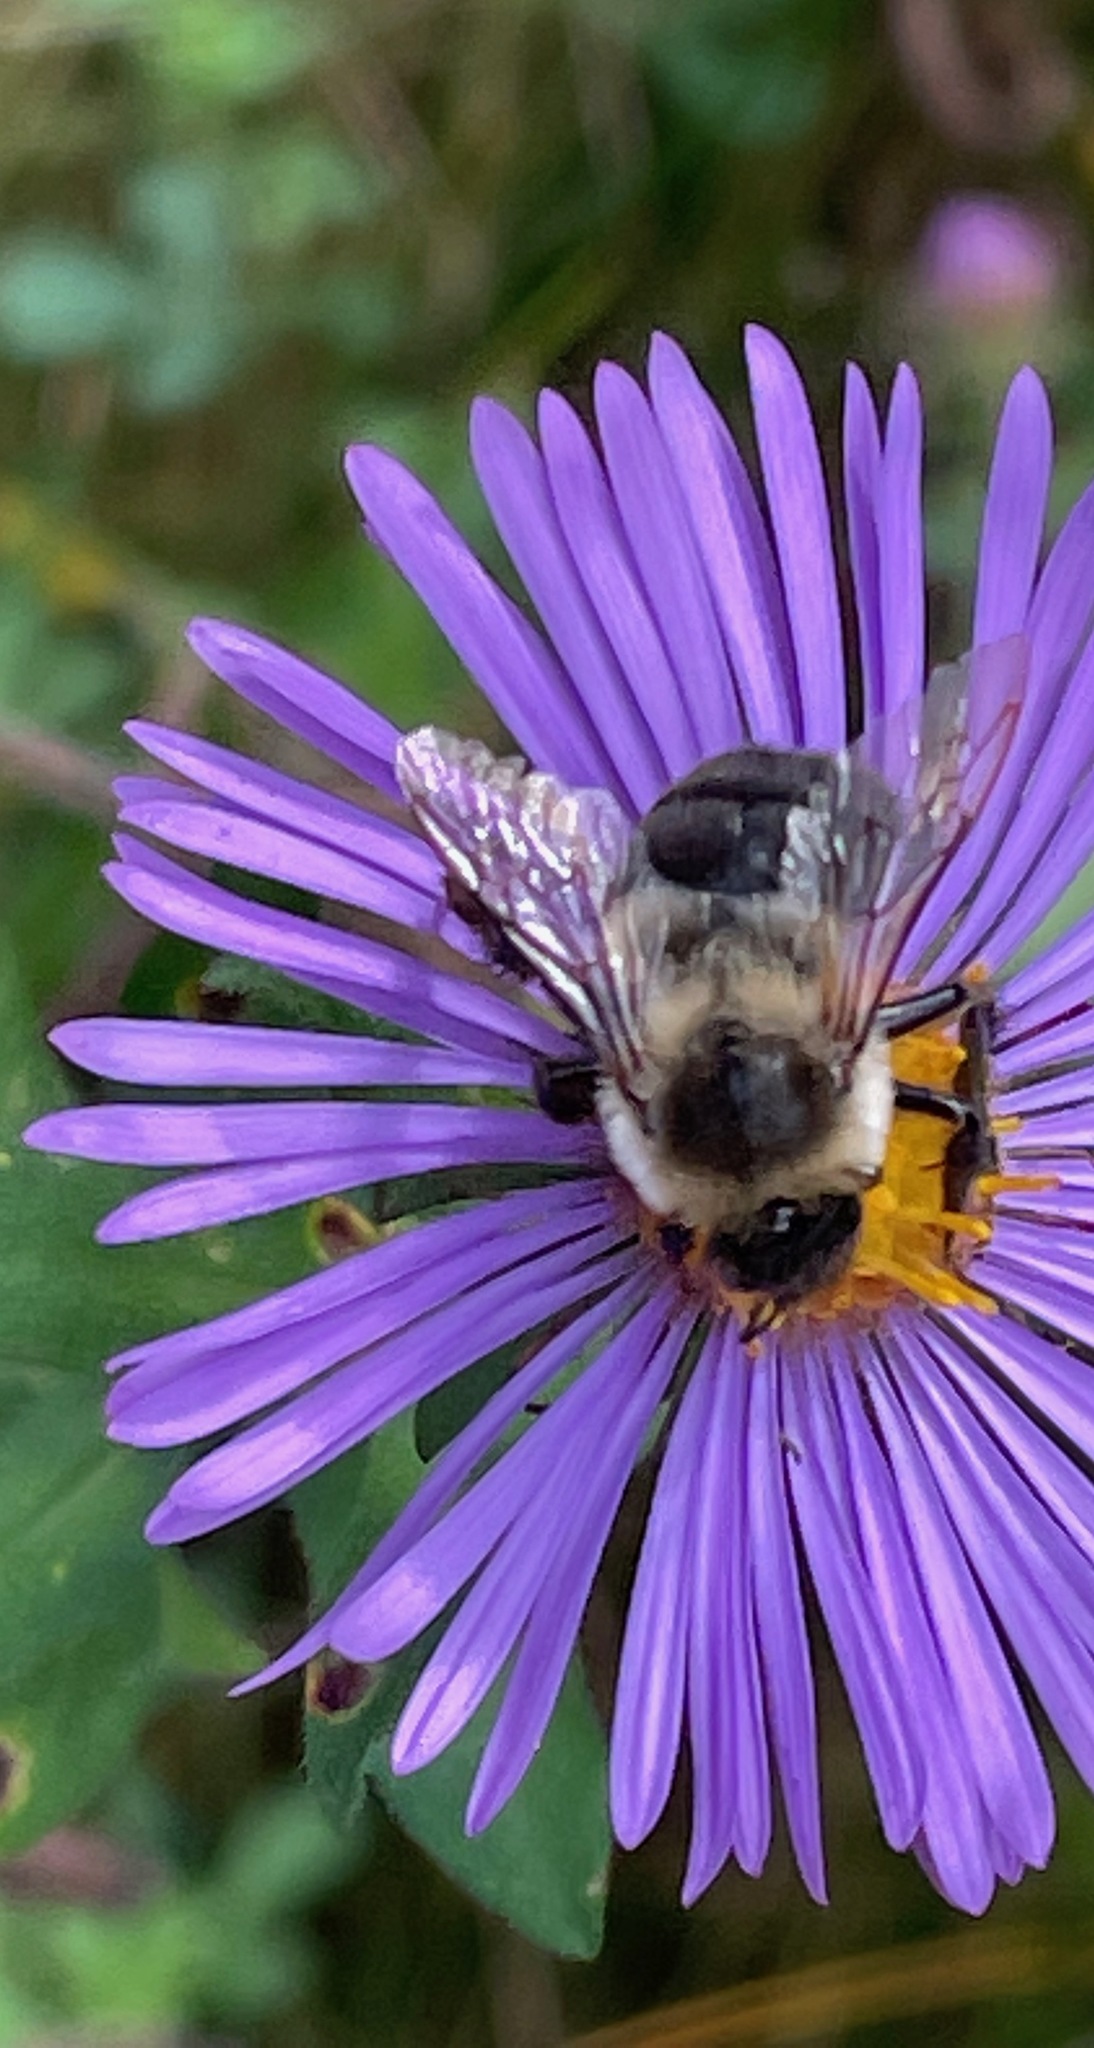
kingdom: Animalia
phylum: Arthropoda
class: Insecta
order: Hymenoptera
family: Apidae
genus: Bombus
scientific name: Bombus impatiens
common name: Common eastern bumble bee
